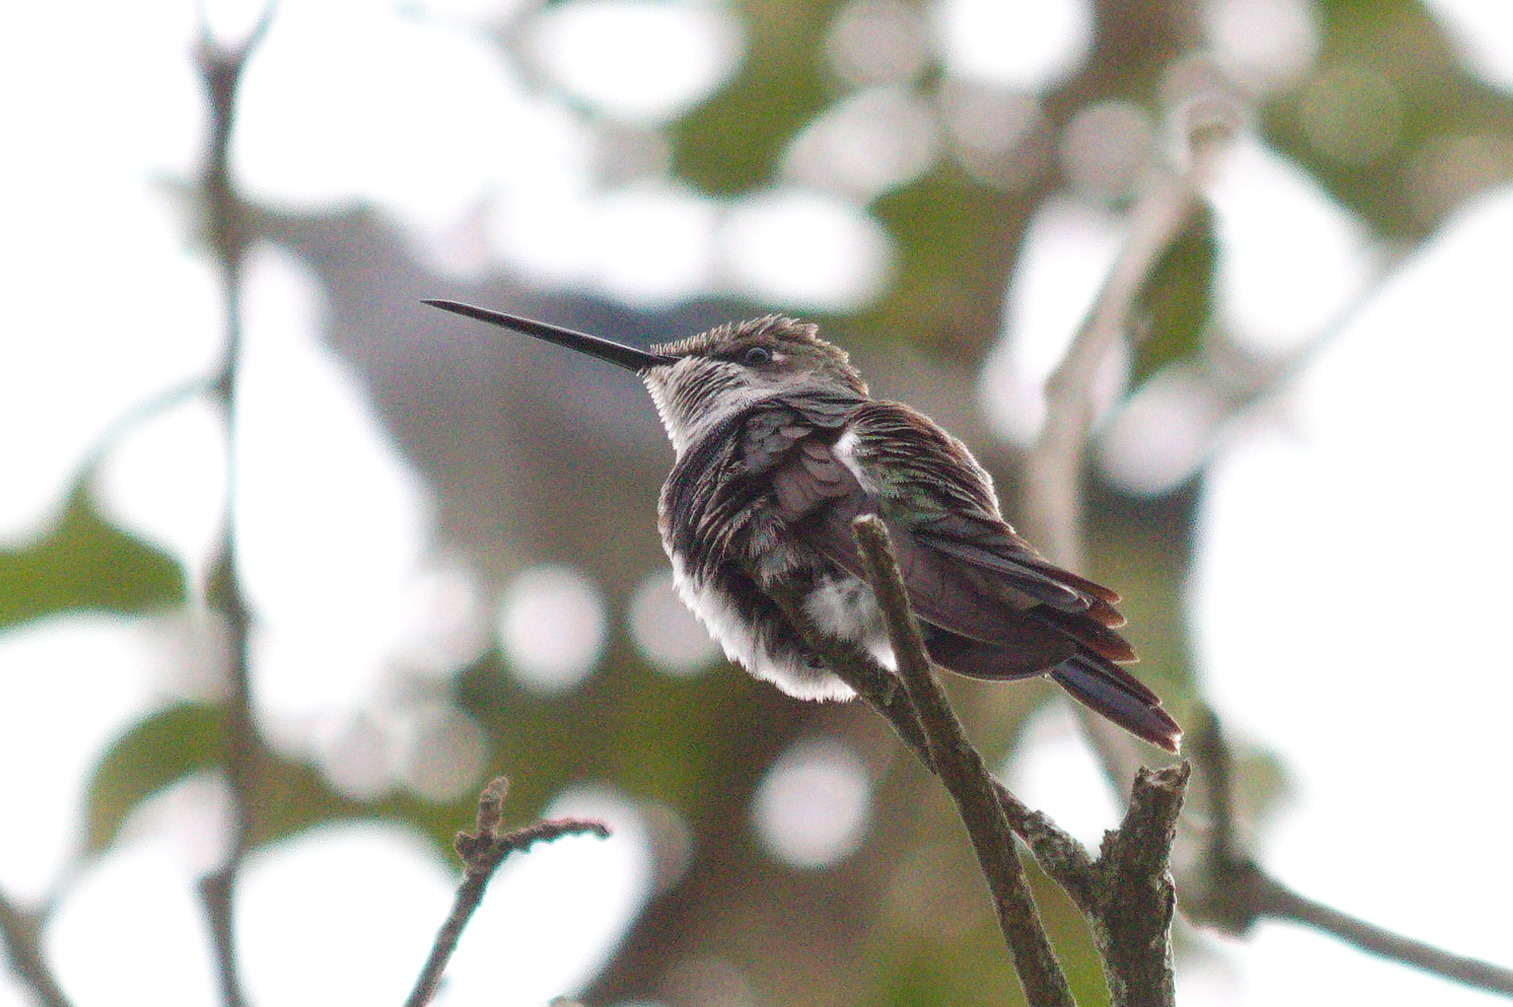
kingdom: Animalia
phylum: Chordata
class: Aves
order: Apodiformes
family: Trochilidae
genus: Heliomaster
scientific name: Heliomaster furcifer
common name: Blue-tufted starthroat
